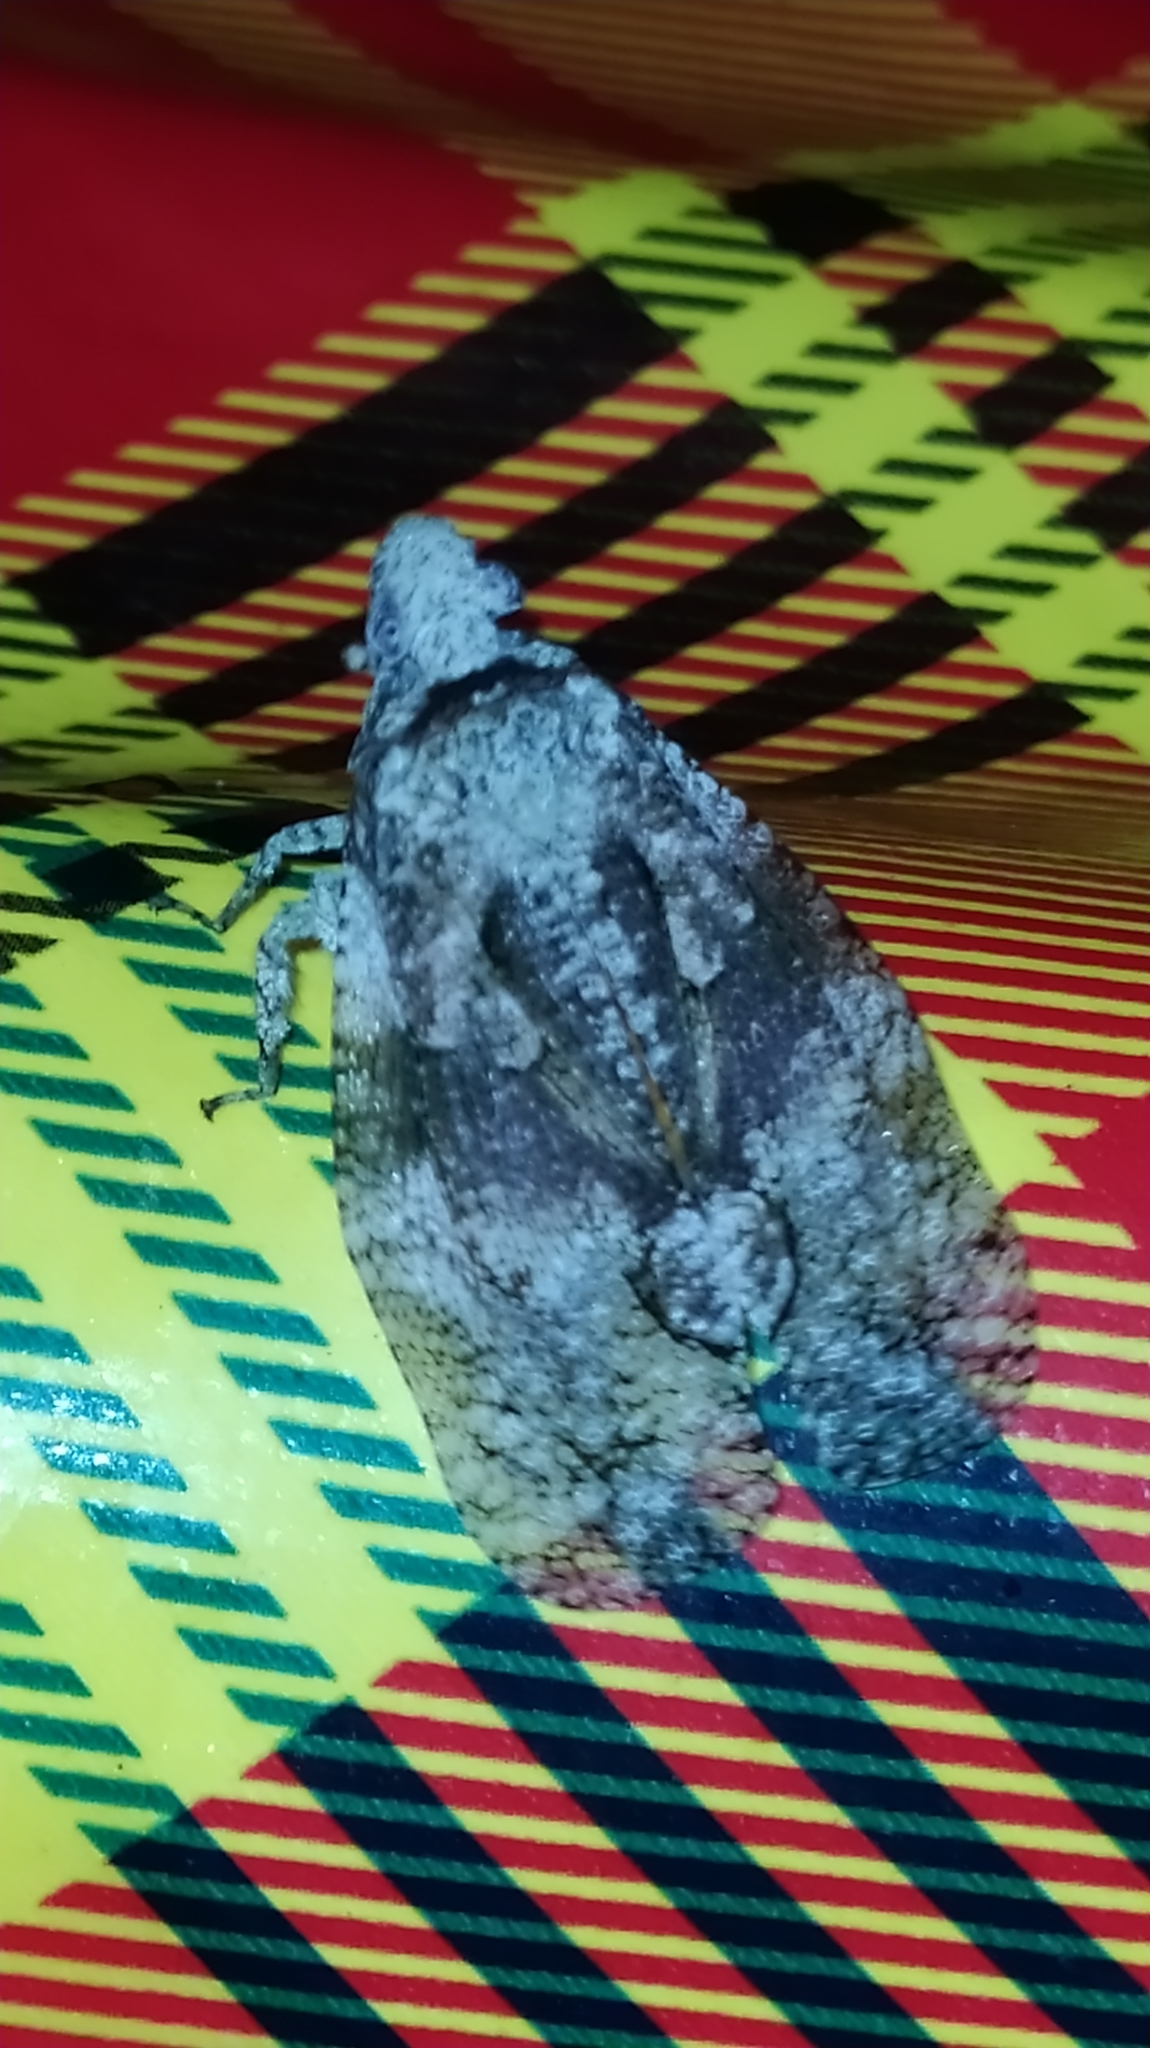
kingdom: Animalia
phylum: Arthropoda
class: Insecta
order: Hemiptera
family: Fulgoridae
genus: Episcius
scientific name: Episcius guianensis
